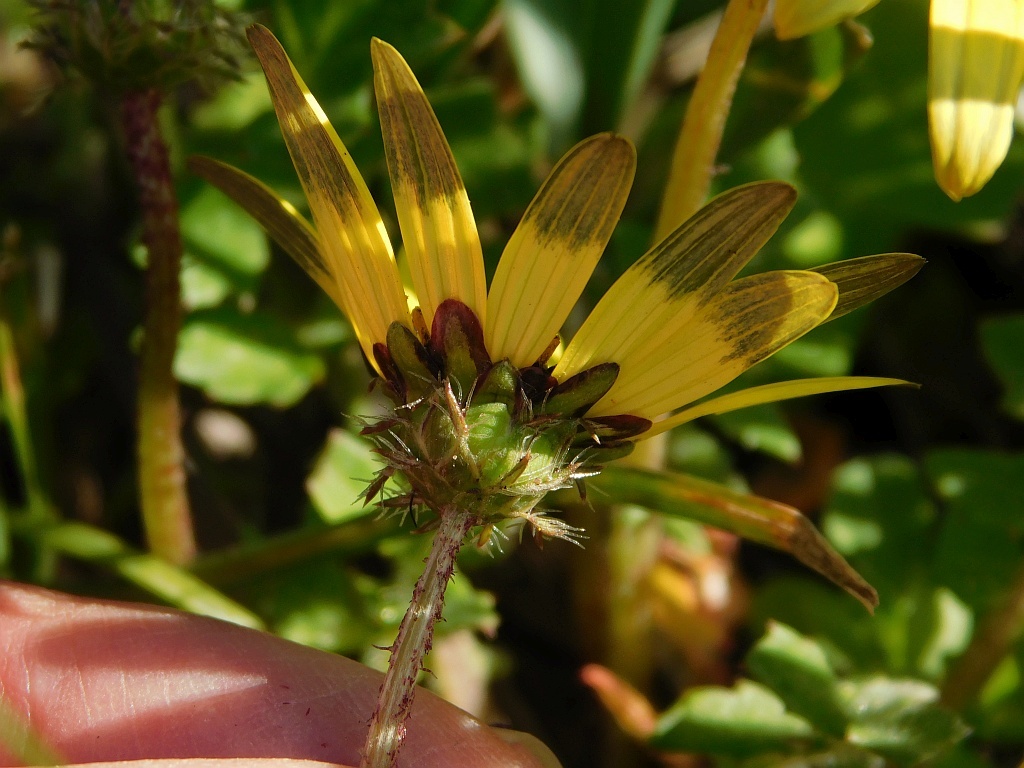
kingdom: Plantae
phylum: Tracheophyta
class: Magnoliopsida
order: Asterales
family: Asteraceae
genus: Arctotheca
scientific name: Arctotheca prostrata
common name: Capeweed
